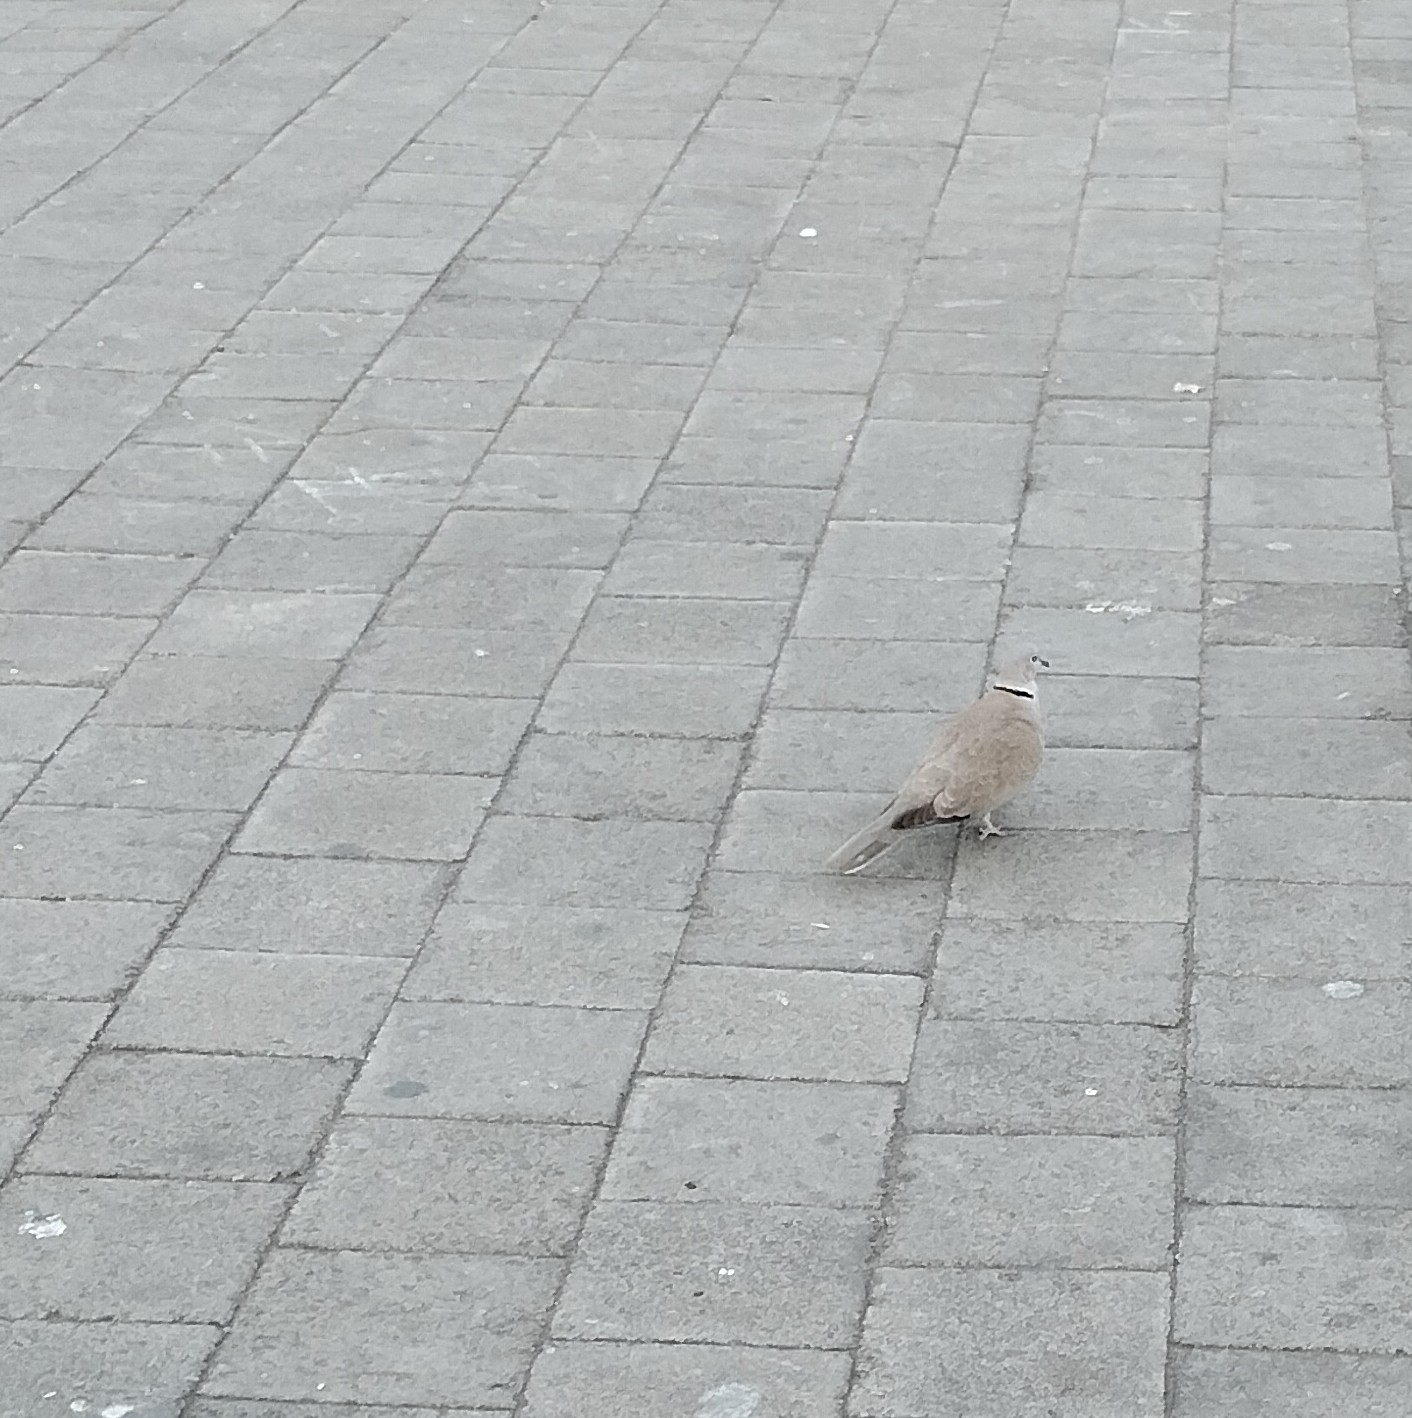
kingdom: Animalia
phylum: Chordata
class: Aves
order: Columbiformes
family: Columbidae
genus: Streptopelia
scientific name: Streptopelia decaocto
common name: Eurasian collared dove
